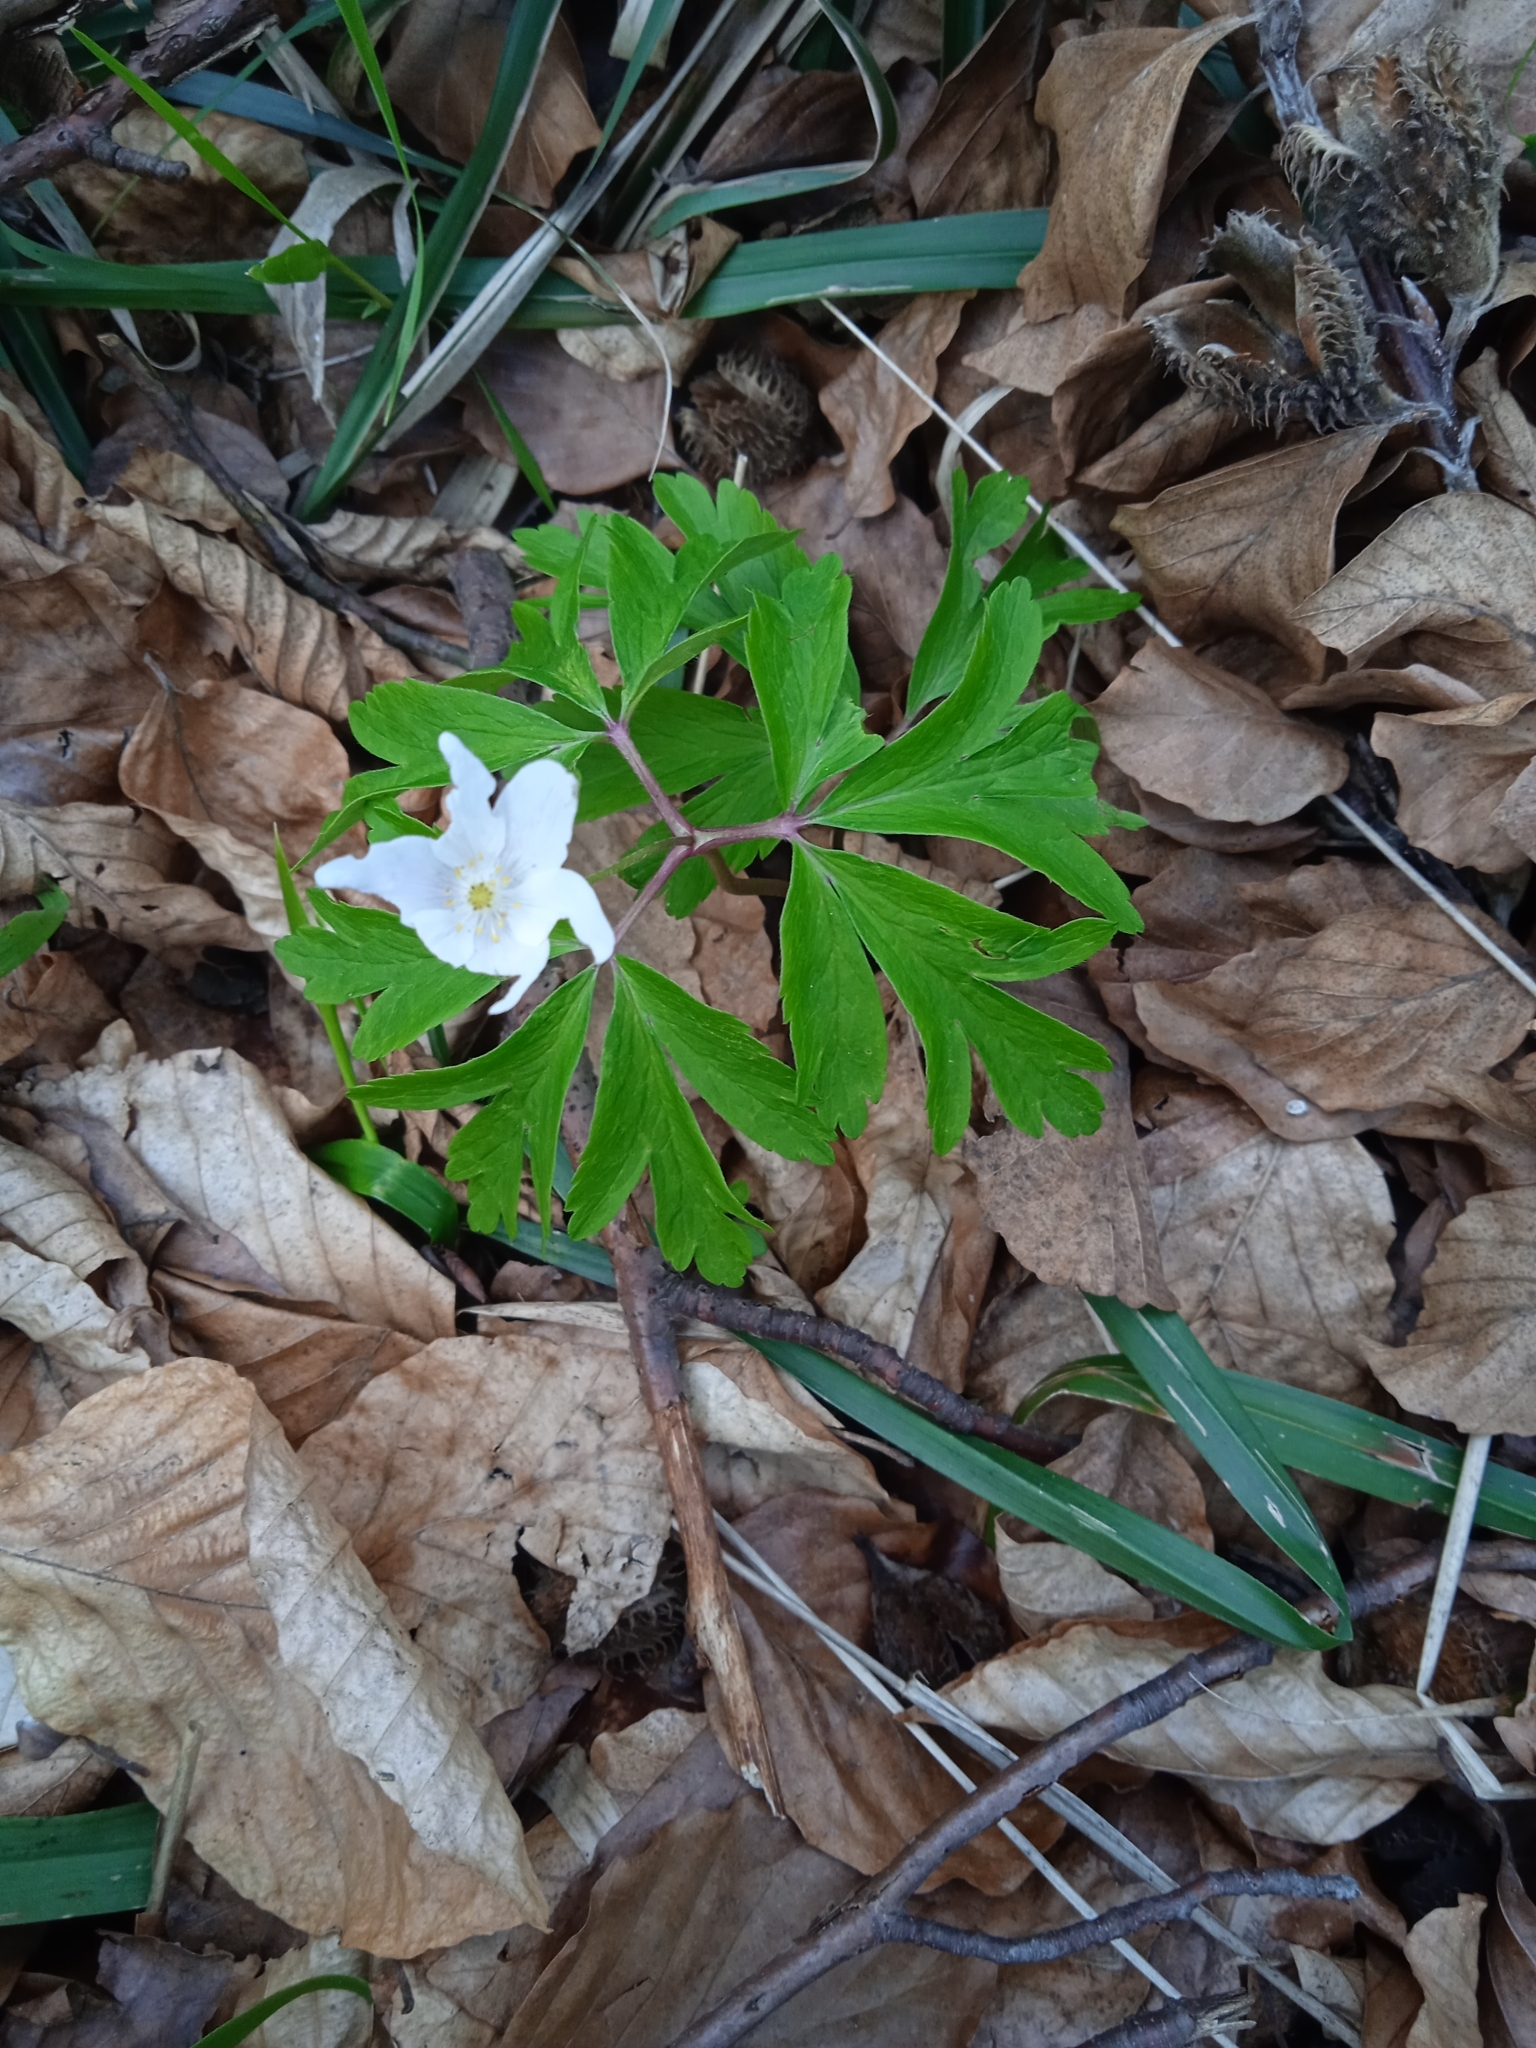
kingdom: Plantae
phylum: Tracheophyta
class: Magnoliopsida
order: Ranunculales
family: Ranunculaceae
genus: Anemone
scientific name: Anemone nemorosa
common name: Wood anemone
